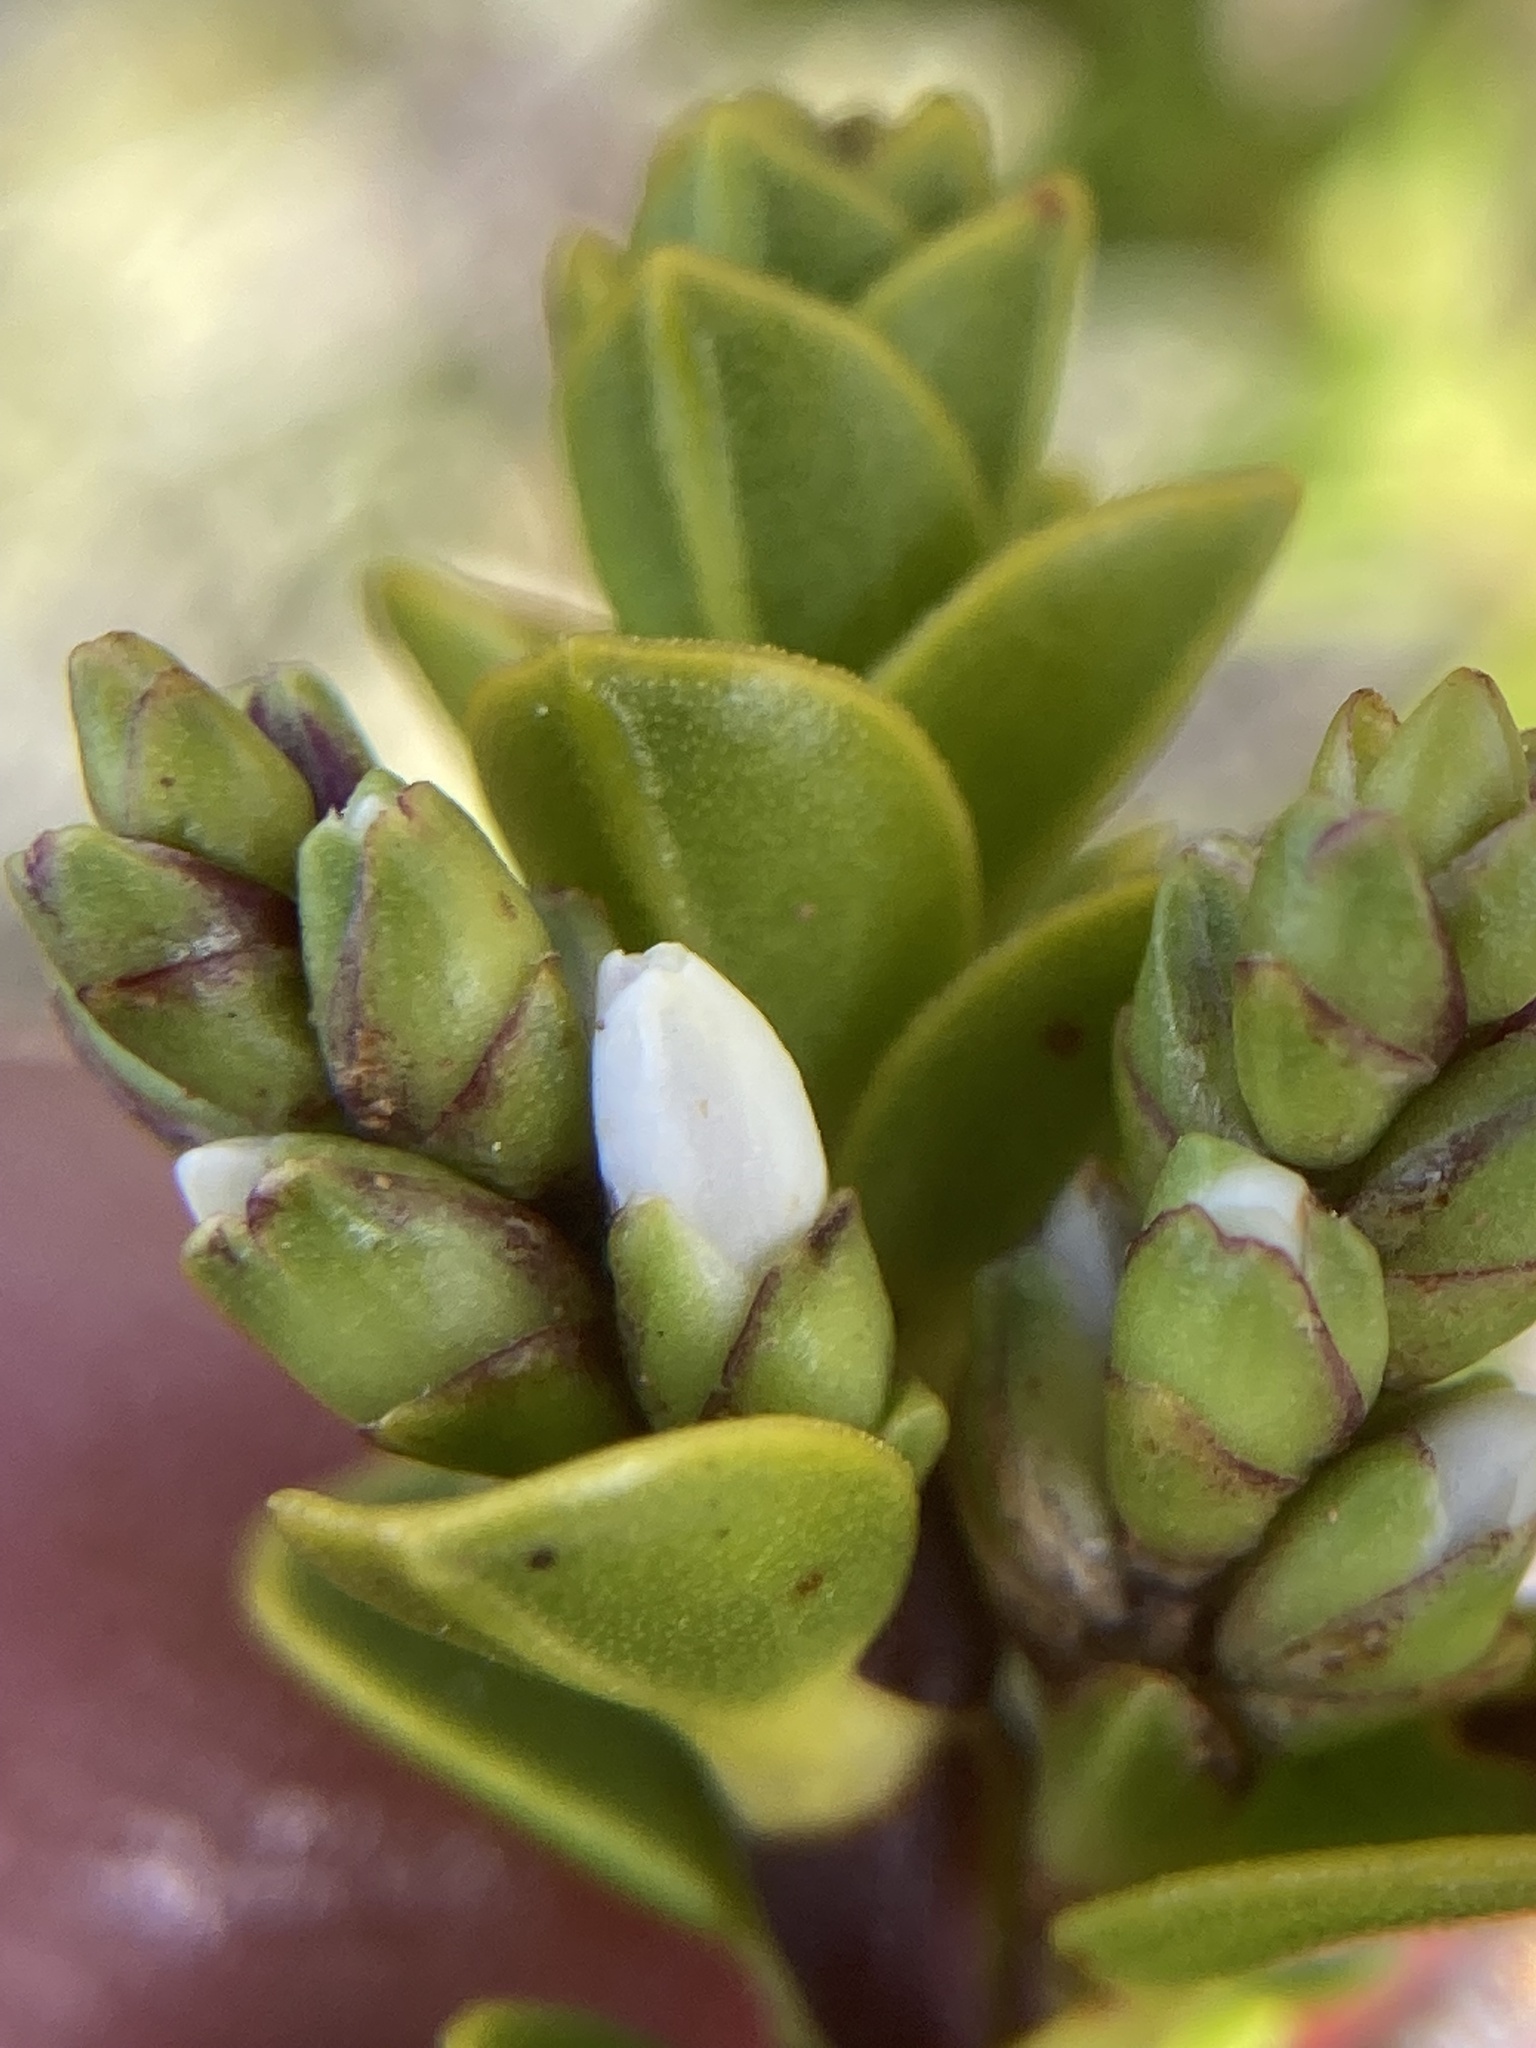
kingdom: Plantae
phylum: Tracheophyta
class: Magnoliopsida
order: Lamiales
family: Plantaginaceae
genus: Veronica
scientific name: Veronica pauciramosa
